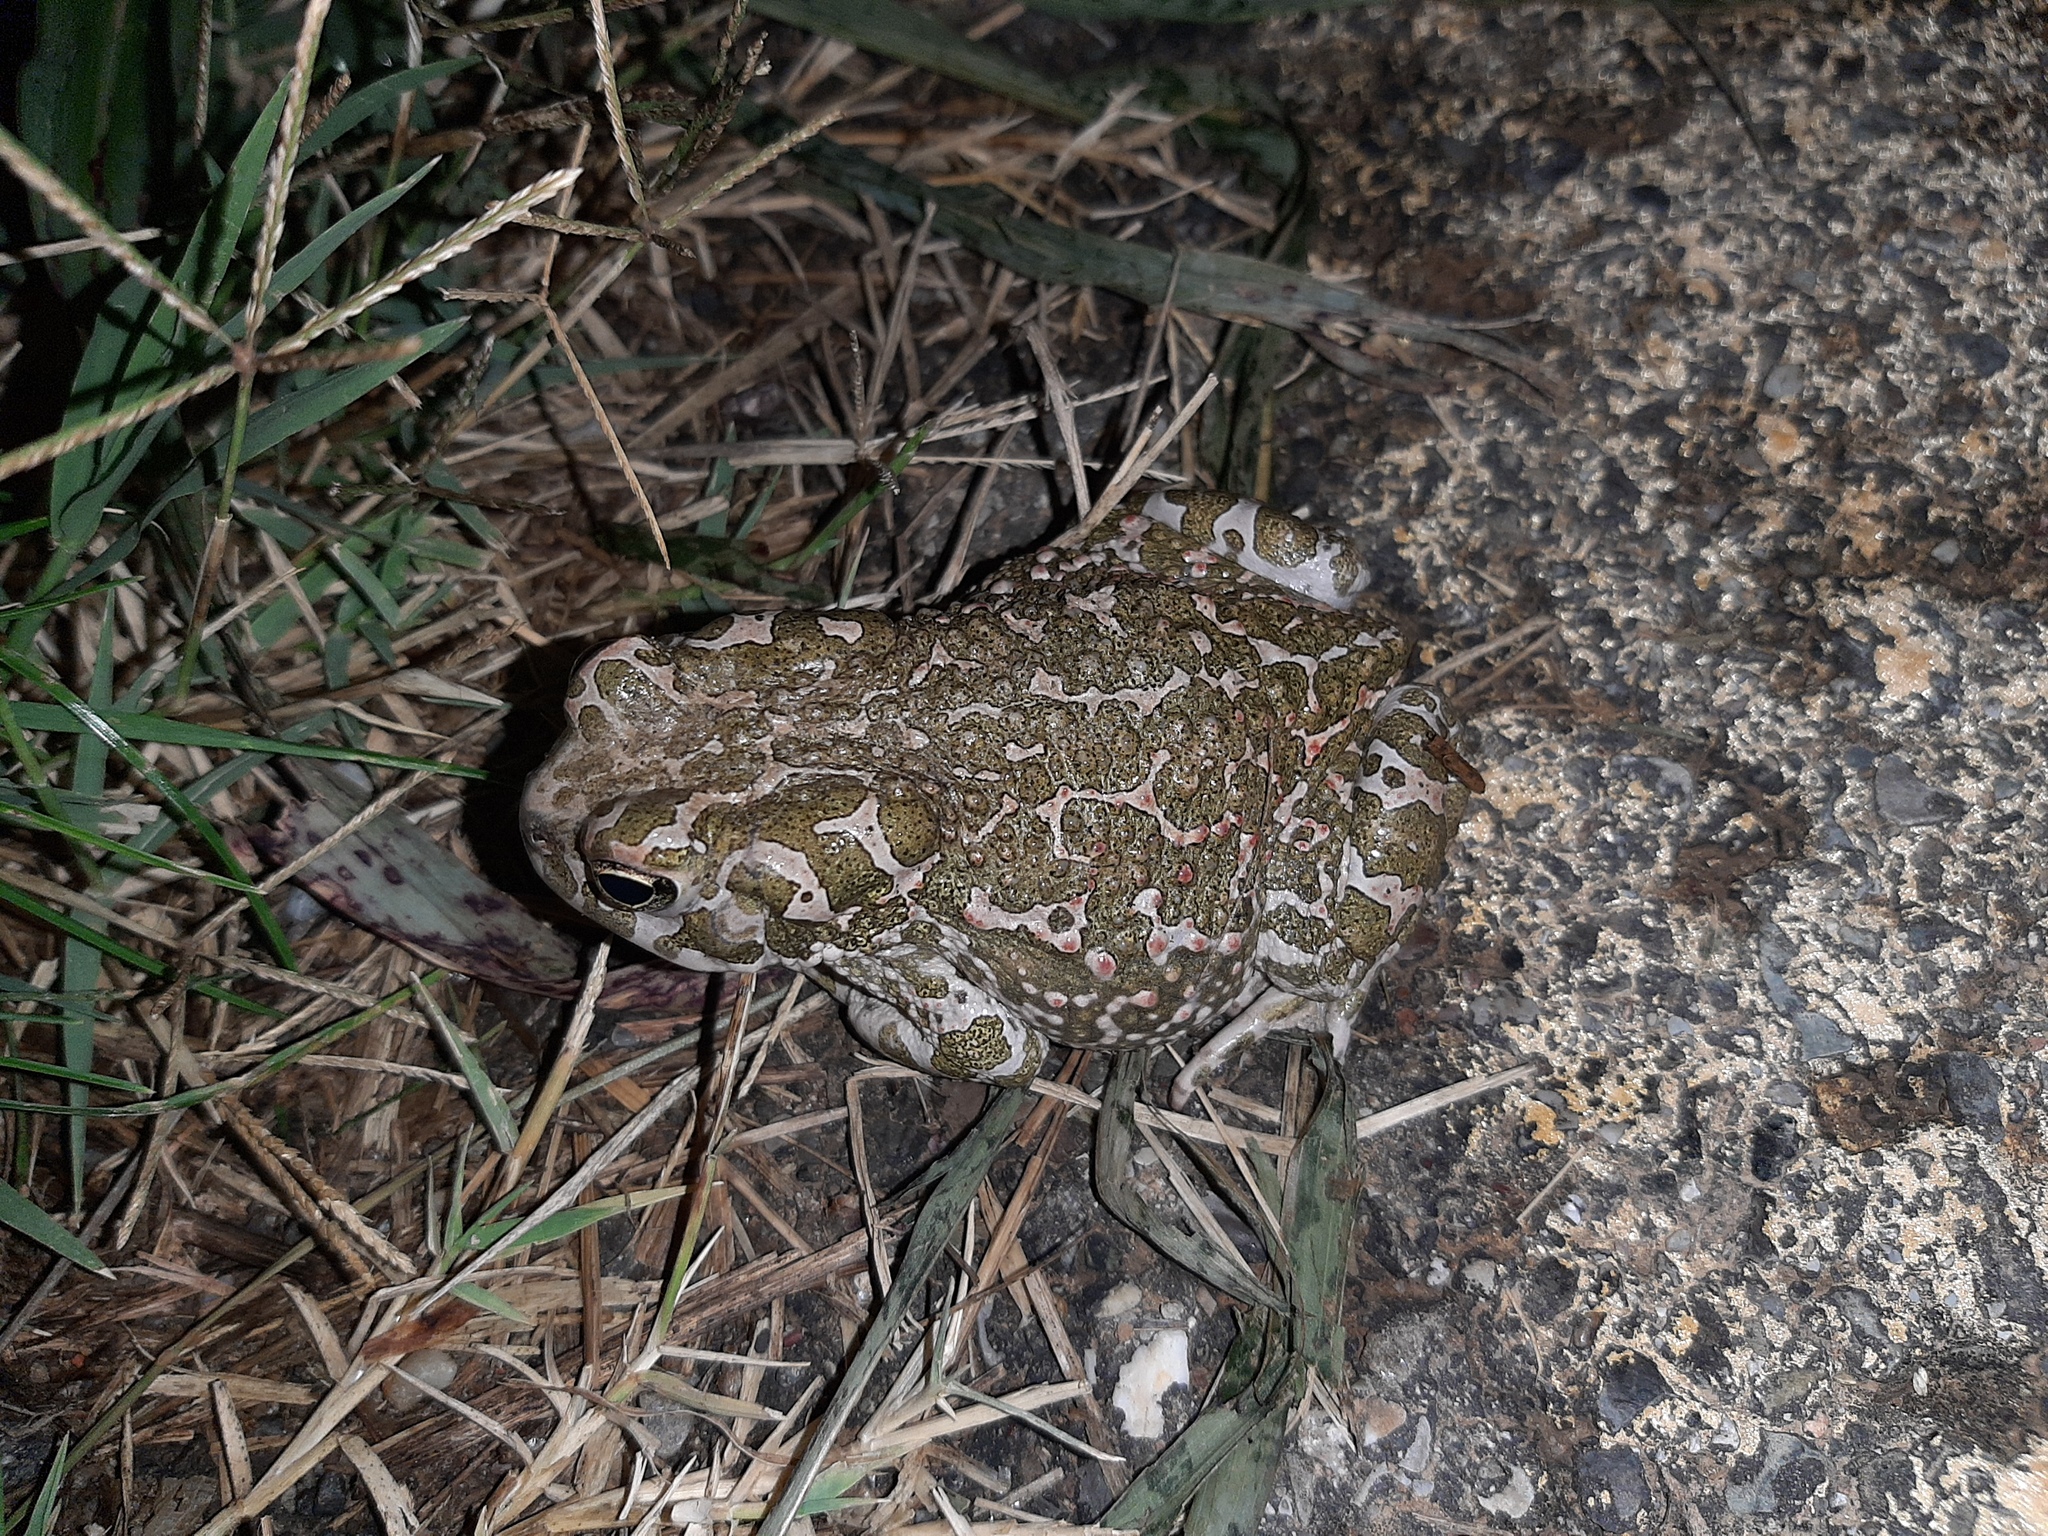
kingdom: Animalia
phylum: Chordata
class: Amphibia
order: Anura
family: Bufonidae
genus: Bufotes
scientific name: Bufotes viridis
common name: European green toad
